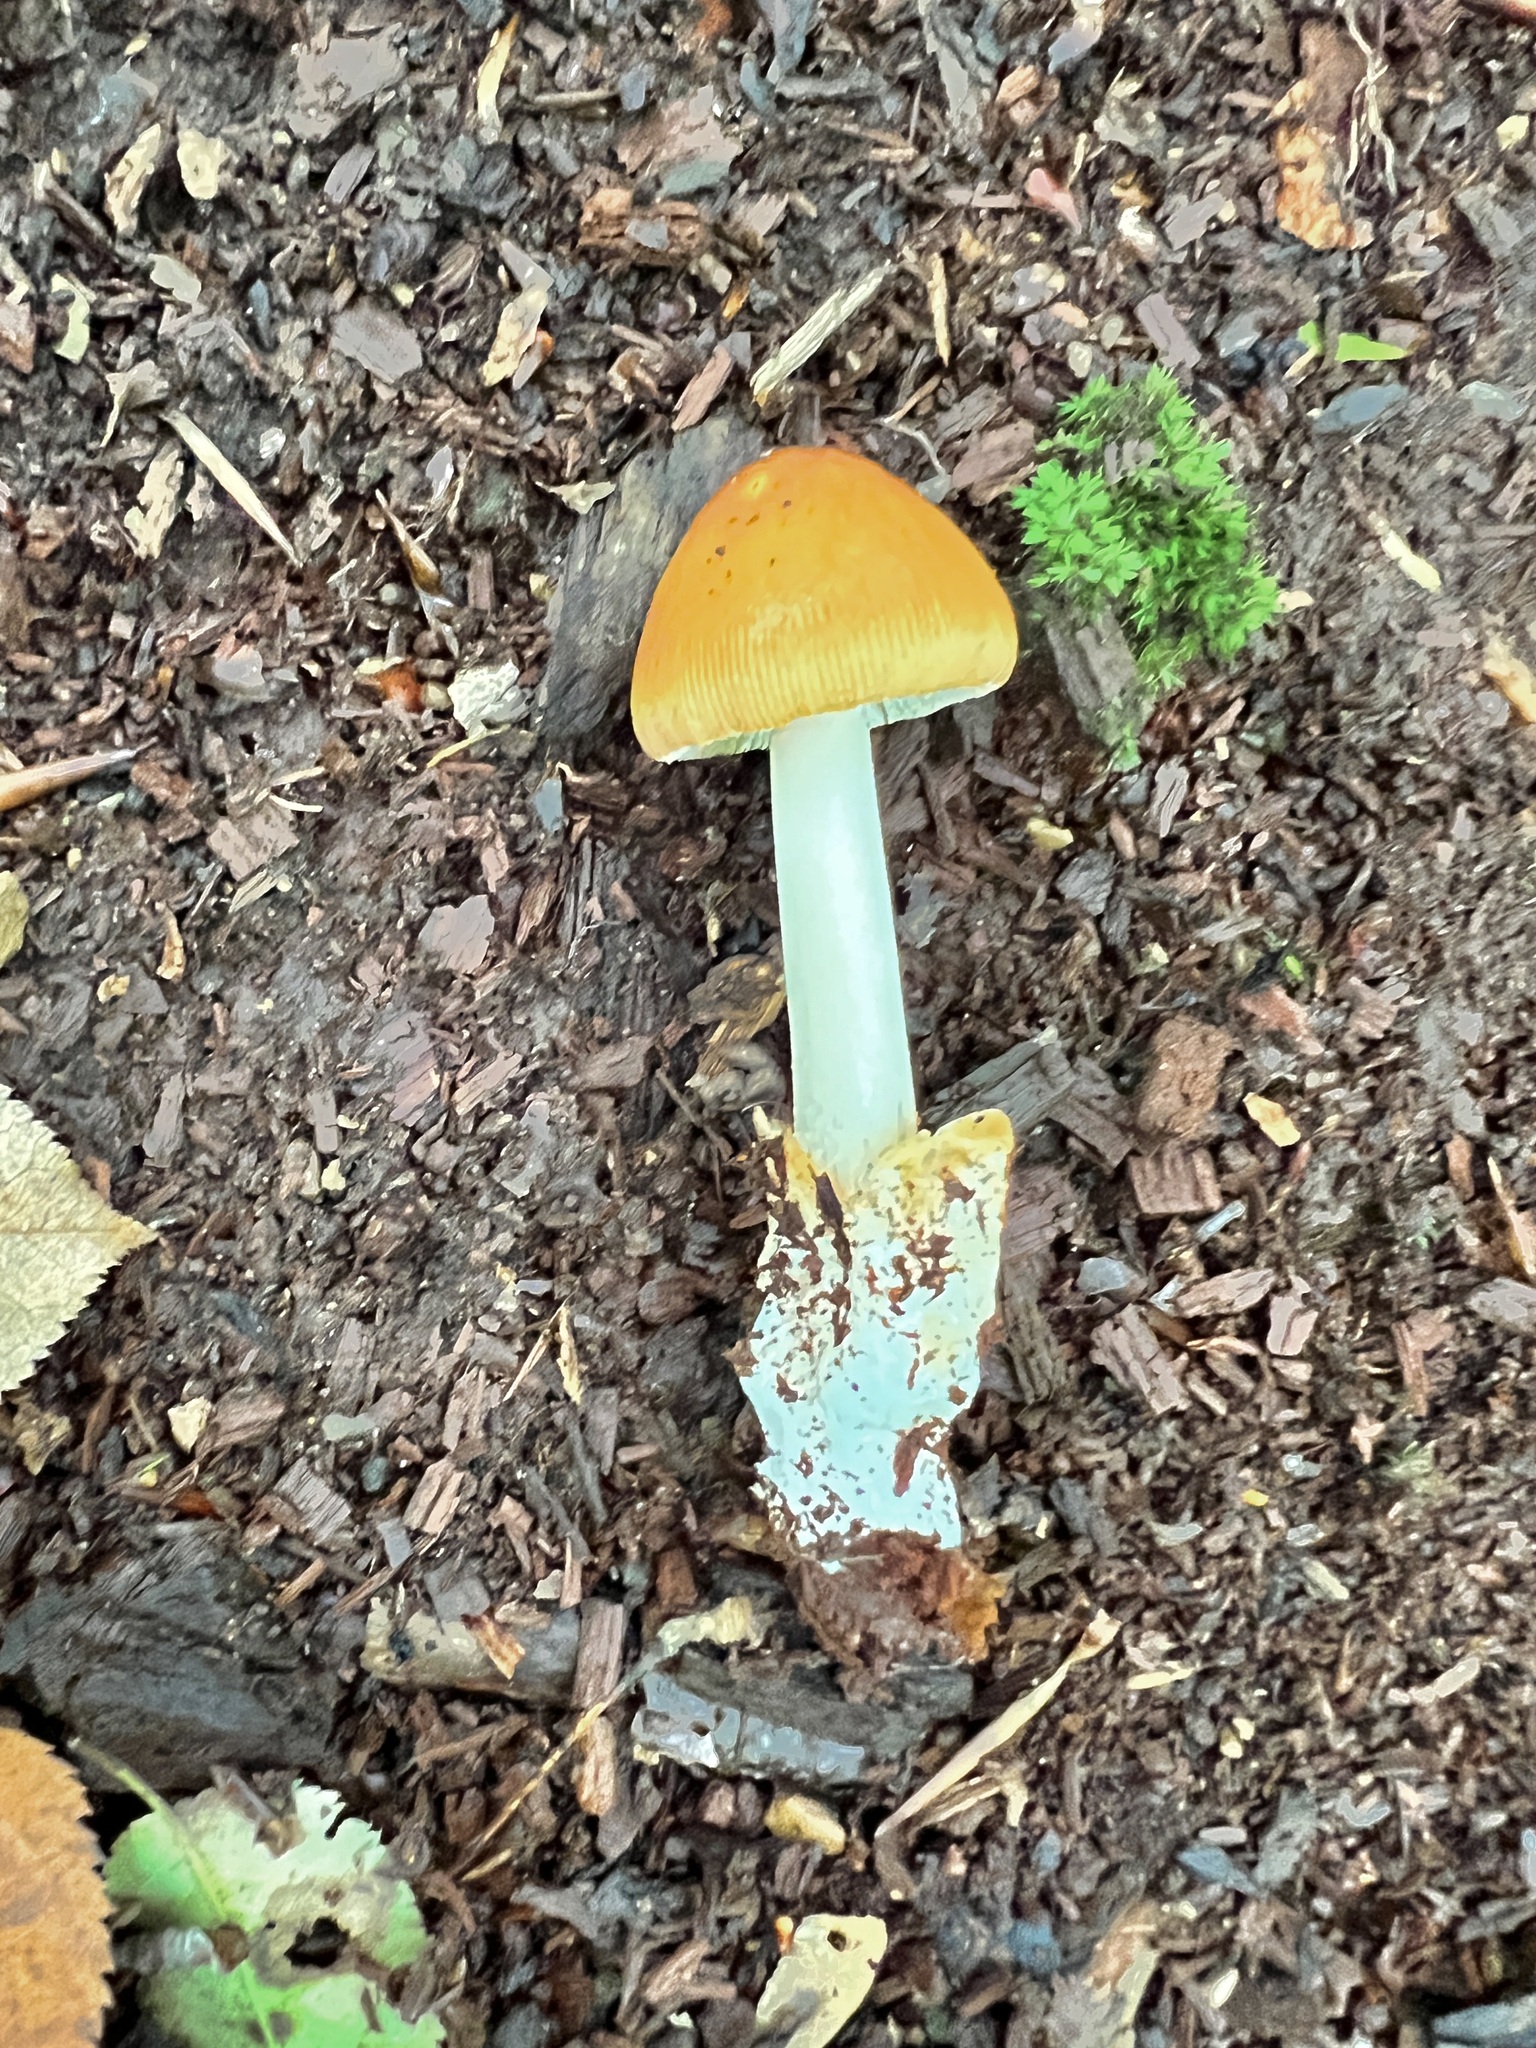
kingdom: Fungi
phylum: Basidiomycota
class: Agaricomycetes
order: Agaricales
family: Amanitaceae
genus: Amanita
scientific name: Amanita fulva
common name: Tawny grisette
